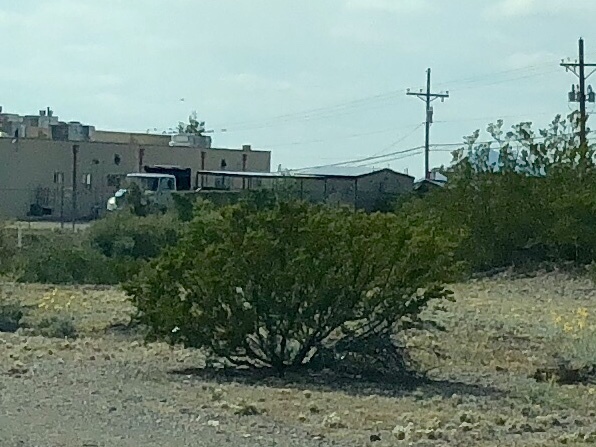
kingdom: Plantae
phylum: Tracheophyta
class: Magnoliopsida
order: Zygophyllales
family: Zygophyllaceae
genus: Larrea
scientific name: Larrea tridentata
